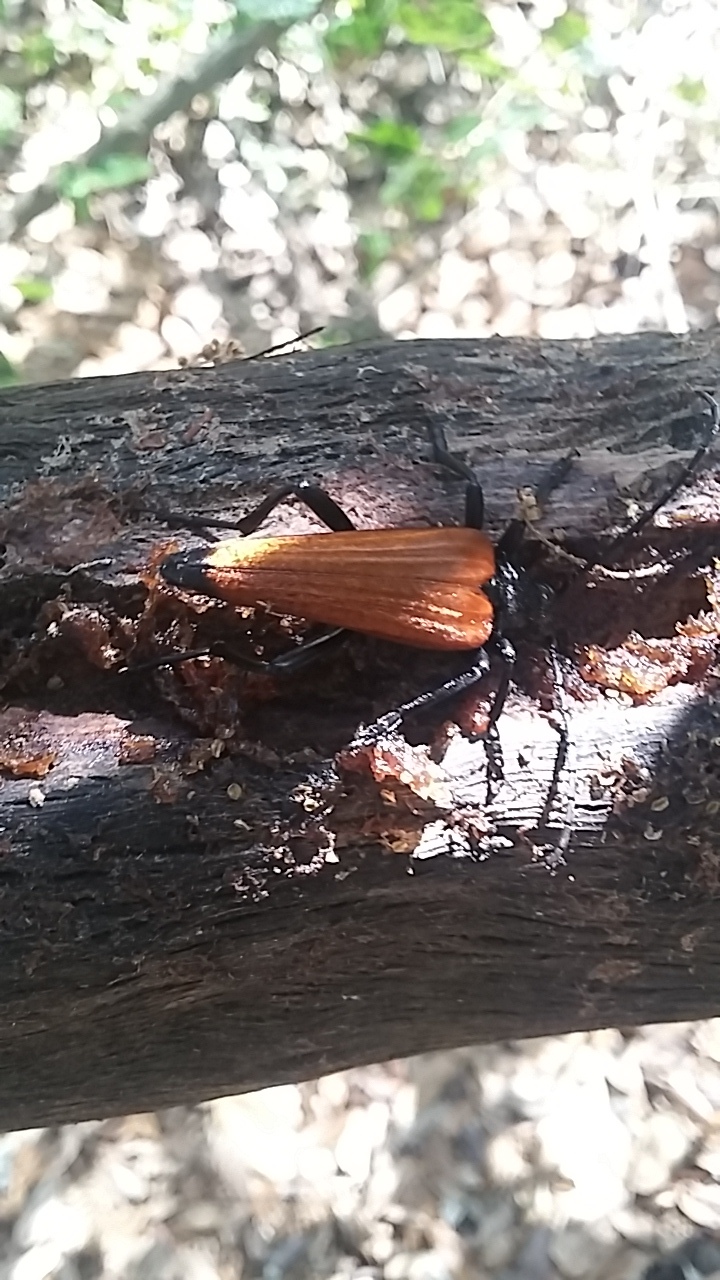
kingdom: Animalia
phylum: Arthropoda
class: Insecta
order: Coleoptera
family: Cerambycidae
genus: Stenelytrana
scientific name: Stenelytrana gigas
